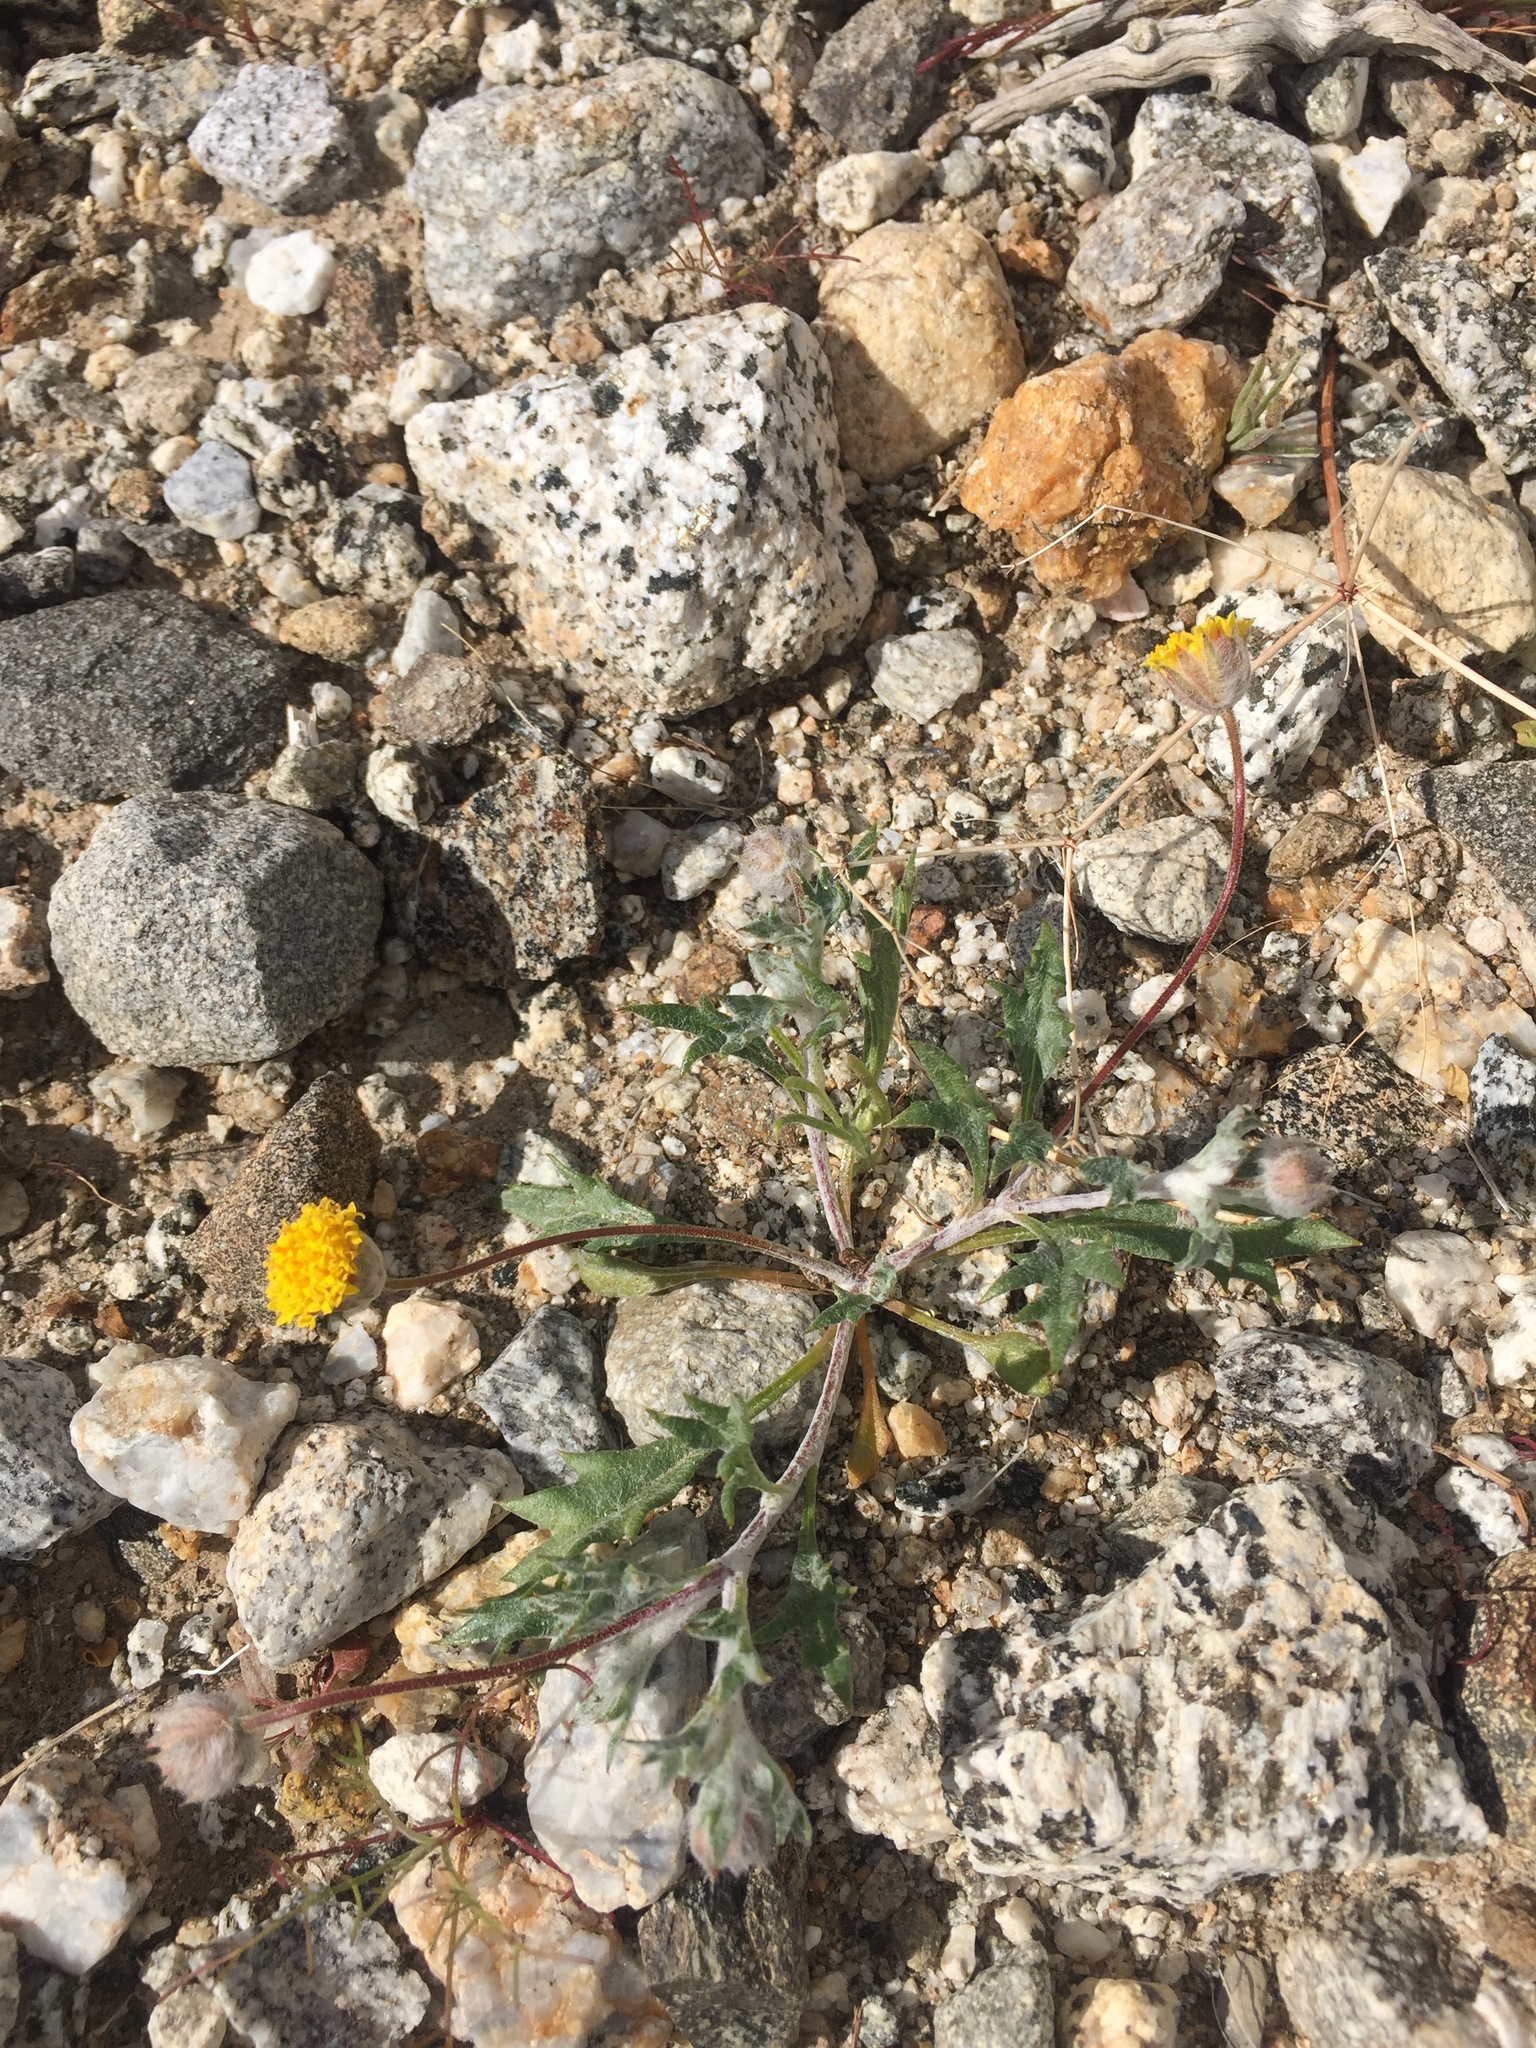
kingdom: Plantae
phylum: Tracheophyta
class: Magnoliopsida
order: Asterales
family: Asteraceae
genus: Trichoptilium
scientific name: Trichoptilium incisum
